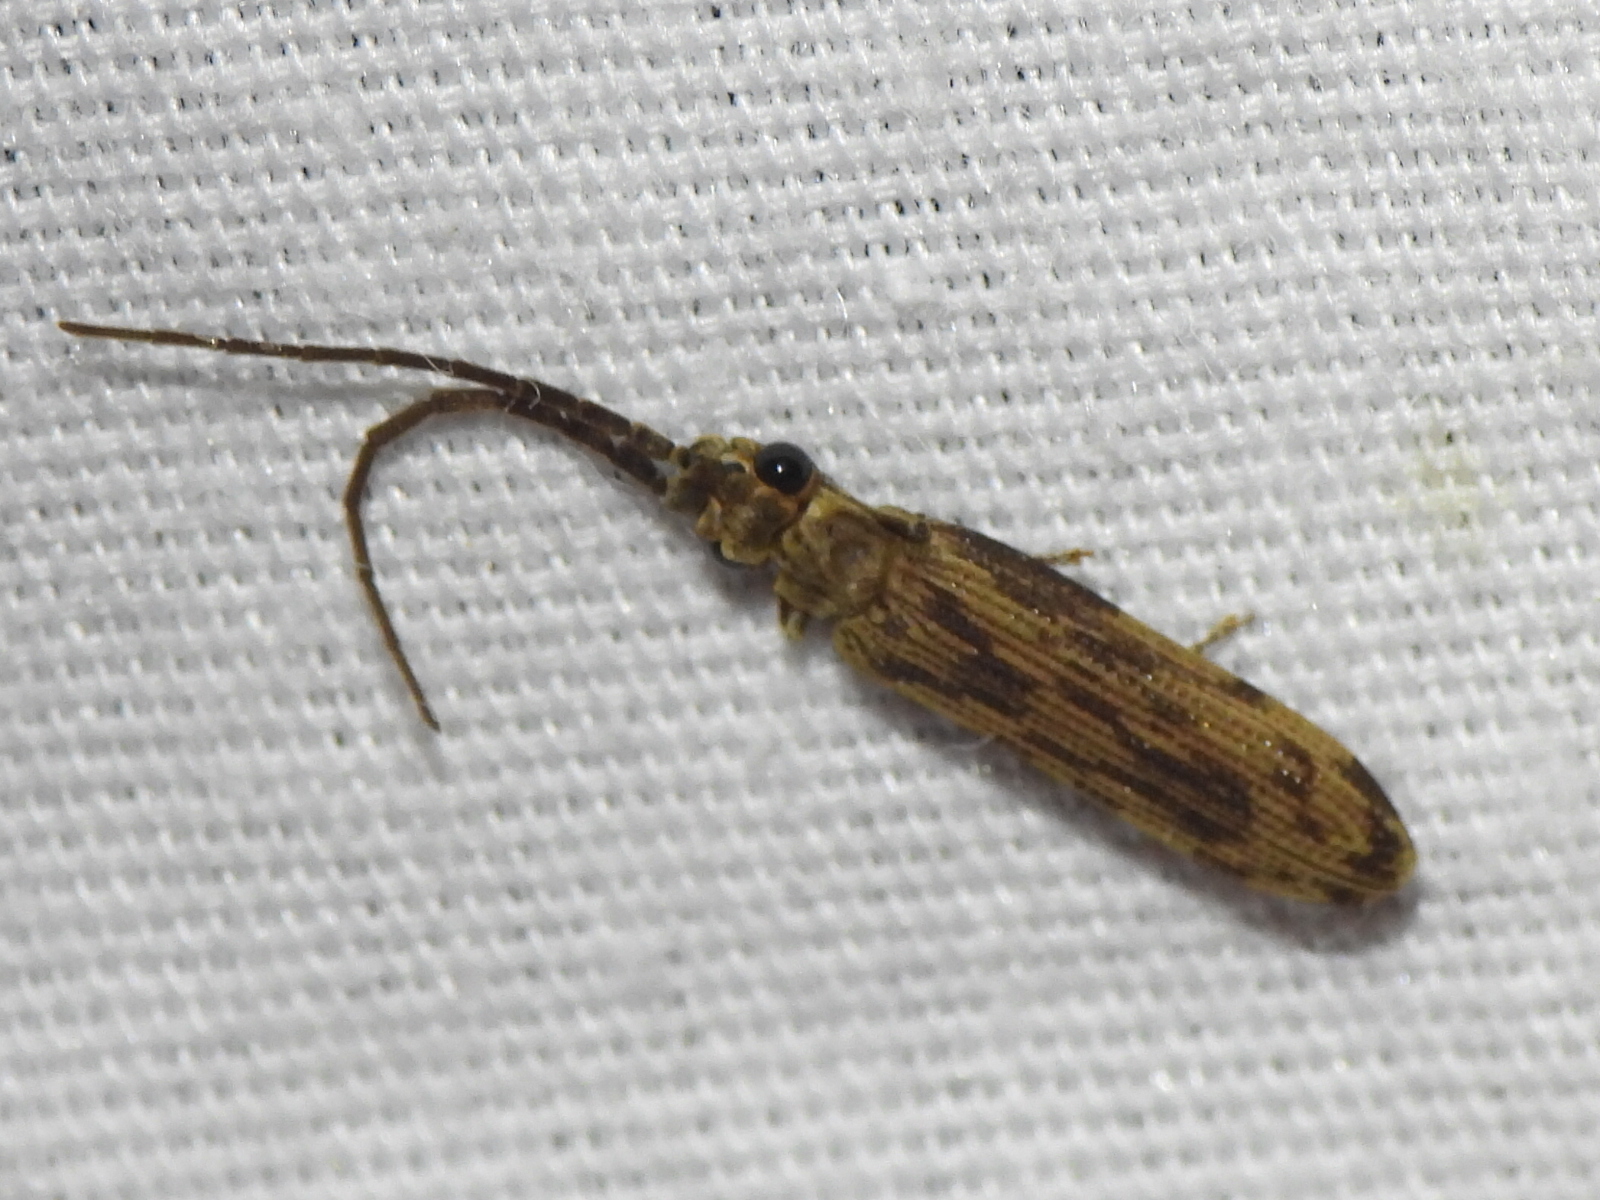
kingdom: Animalia
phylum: Arthropoda
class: Insecta
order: Coleoptera
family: Cupedidae
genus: Tenomerga
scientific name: Tenomerga cinerea
